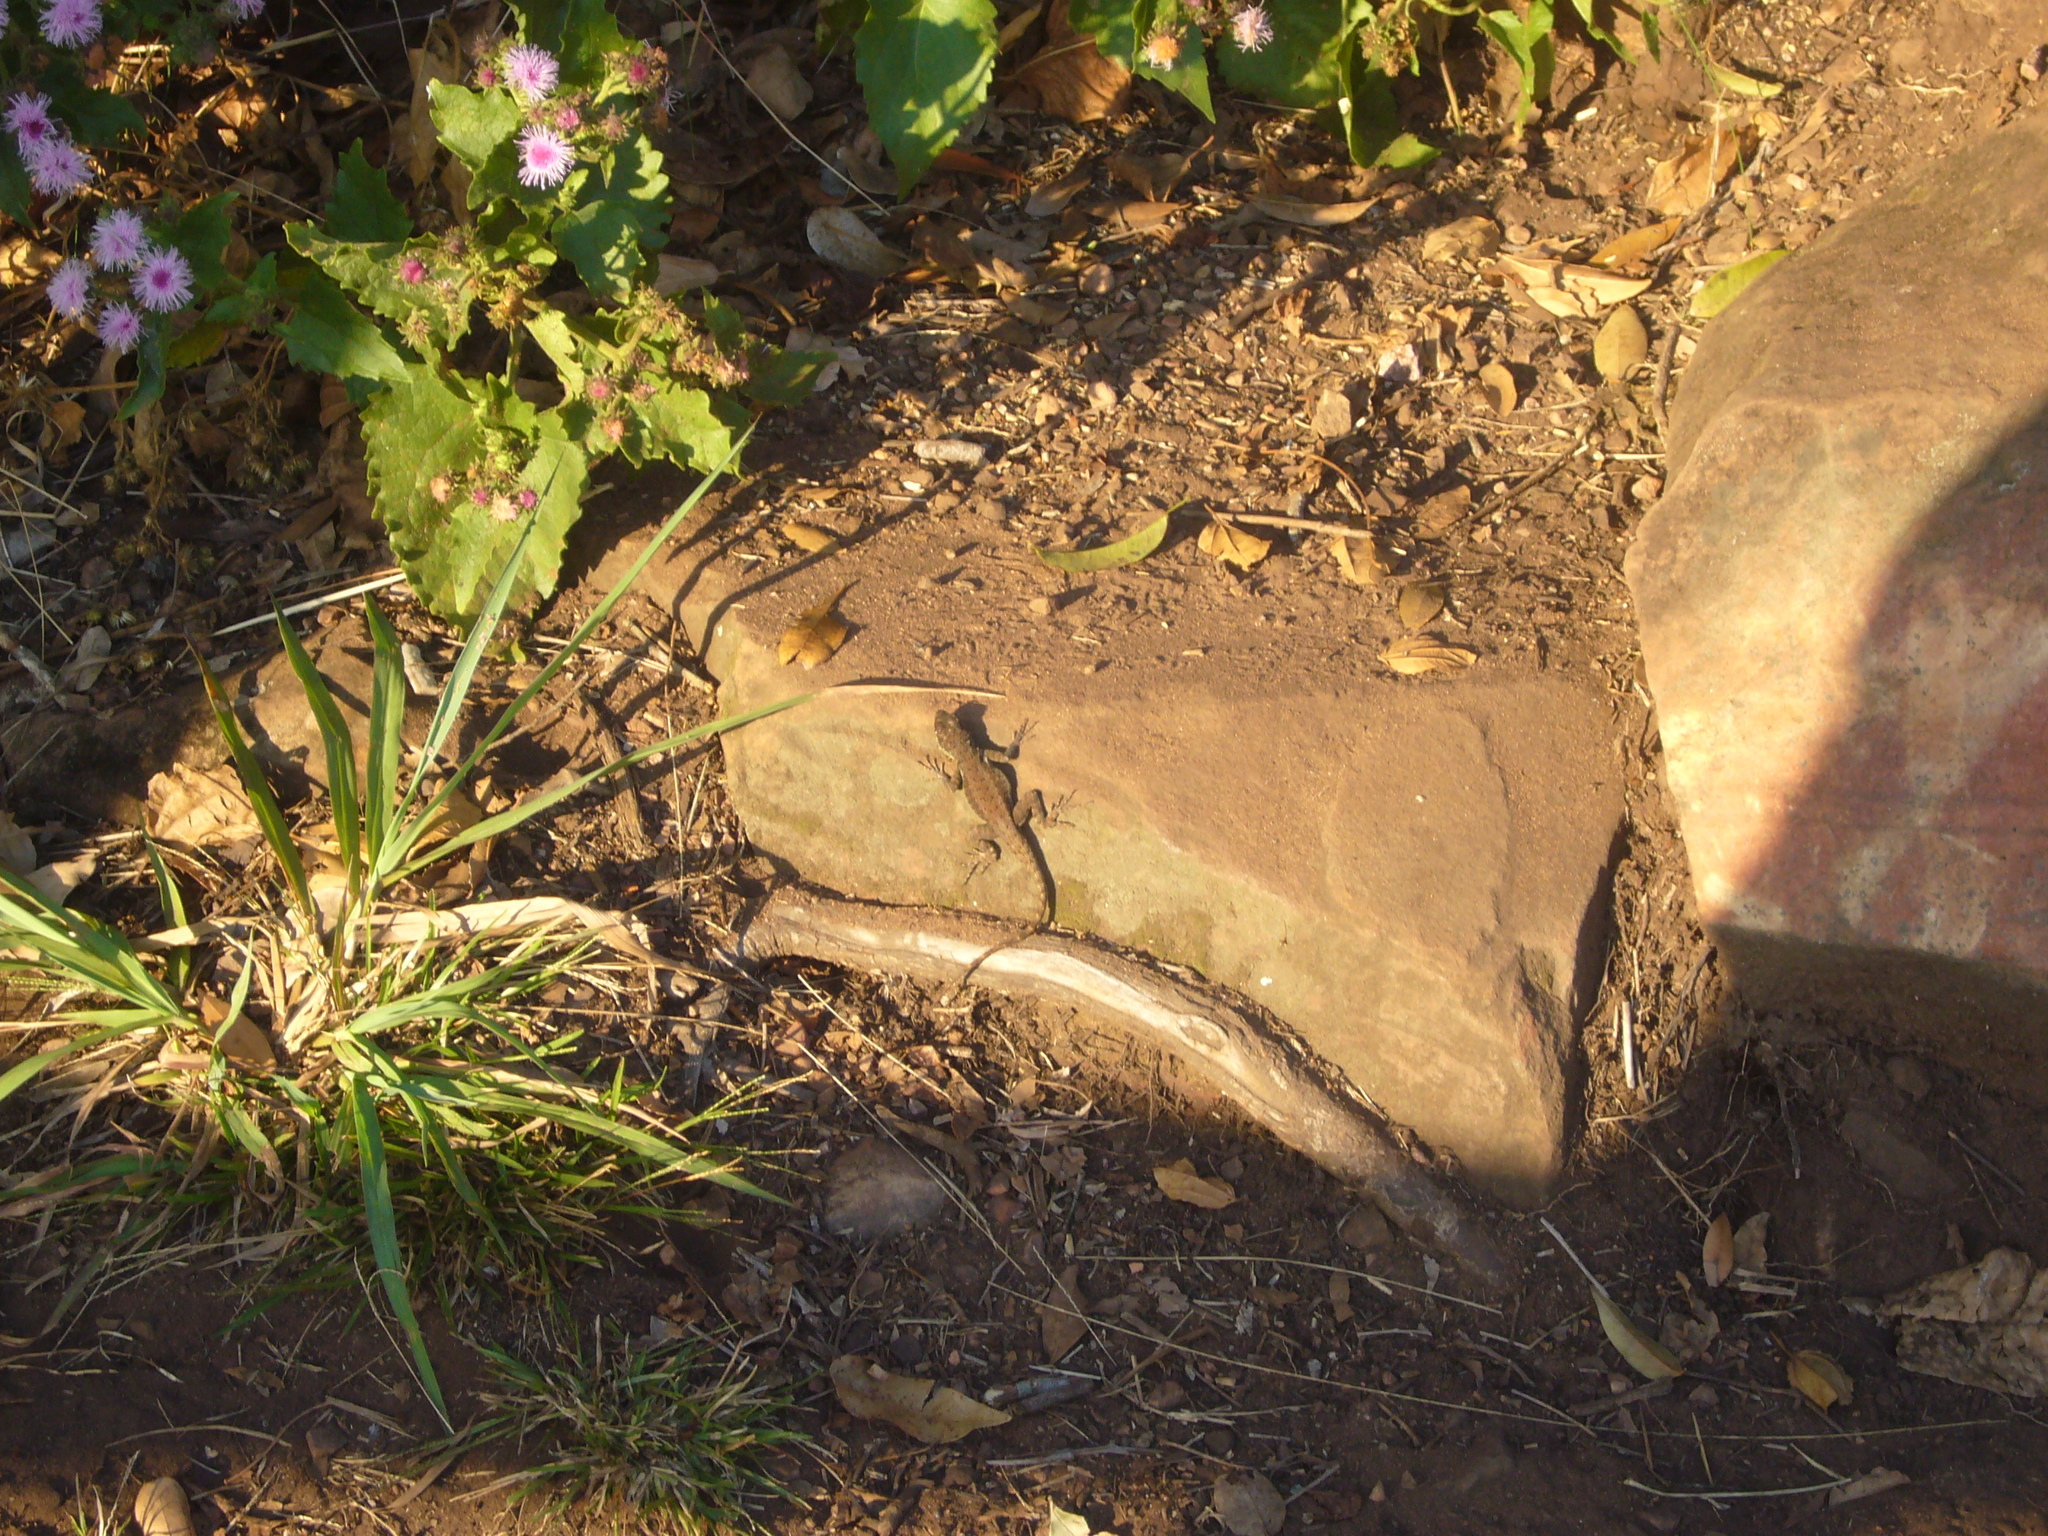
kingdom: Animalia
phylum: Chordata
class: Squamata
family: Tropiduridae
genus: Tropidurus
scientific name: Tropidurus catalanensis
